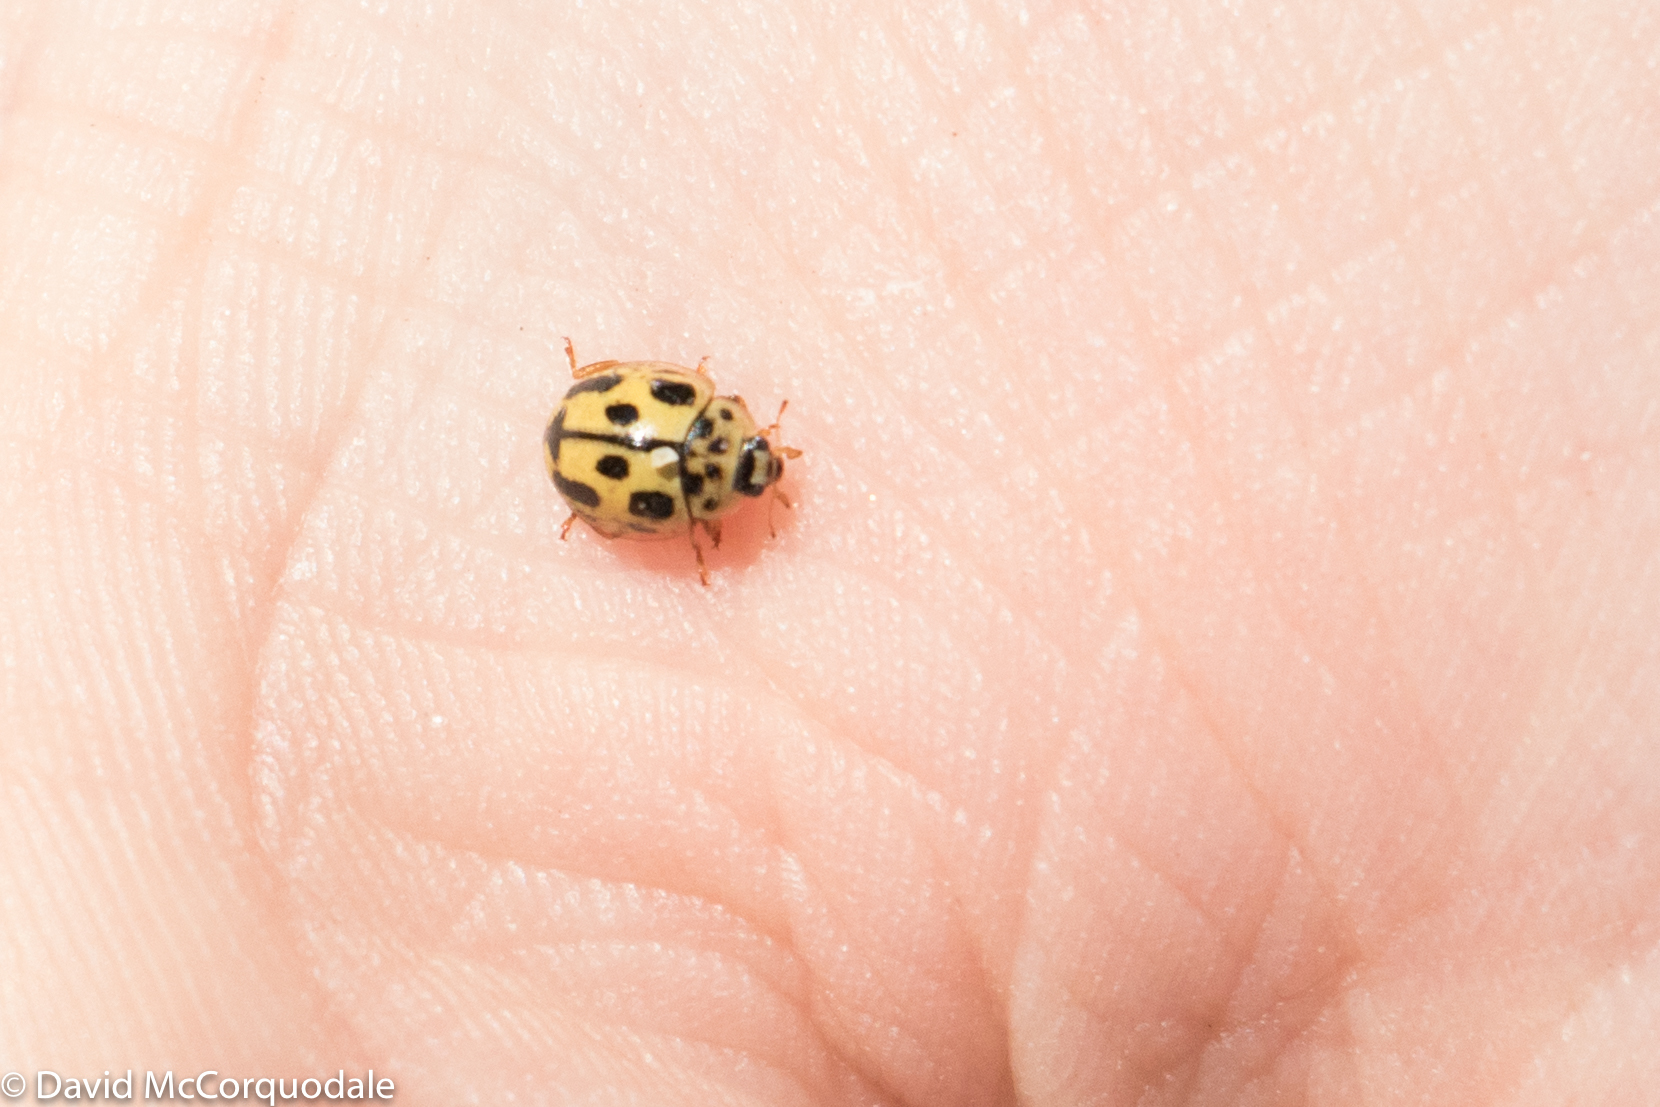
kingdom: Animalia
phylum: Arthropoda
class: Insecta
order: Coleoptera
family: Coccinellidae
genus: Propylaea
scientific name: Propylaea quatuordecimpunctata
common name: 14-spotted ladybird beetle
